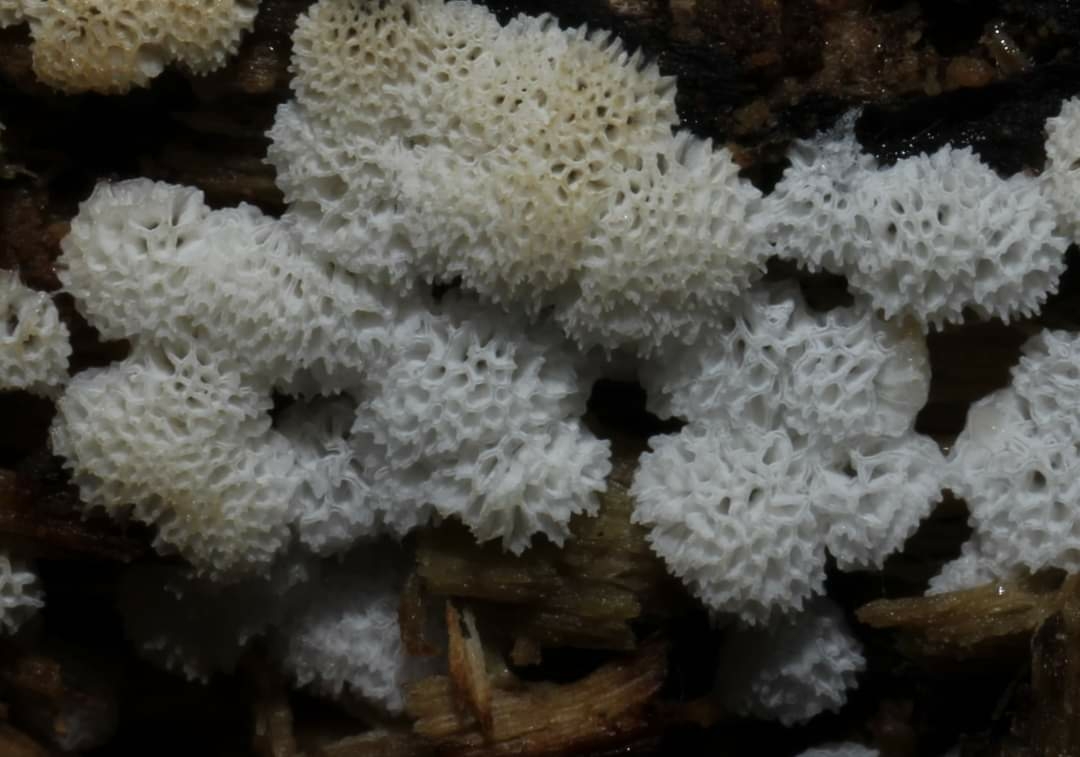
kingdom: Protozoa
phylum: Mycetozoa
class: Protosteliomycetes
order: Ceratiomyxales
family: Ceratiomyxaceae
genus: Ceratiomyxa
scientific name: Ceratiomyxa fruticulosa
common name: Honeycomb coral slime mold
